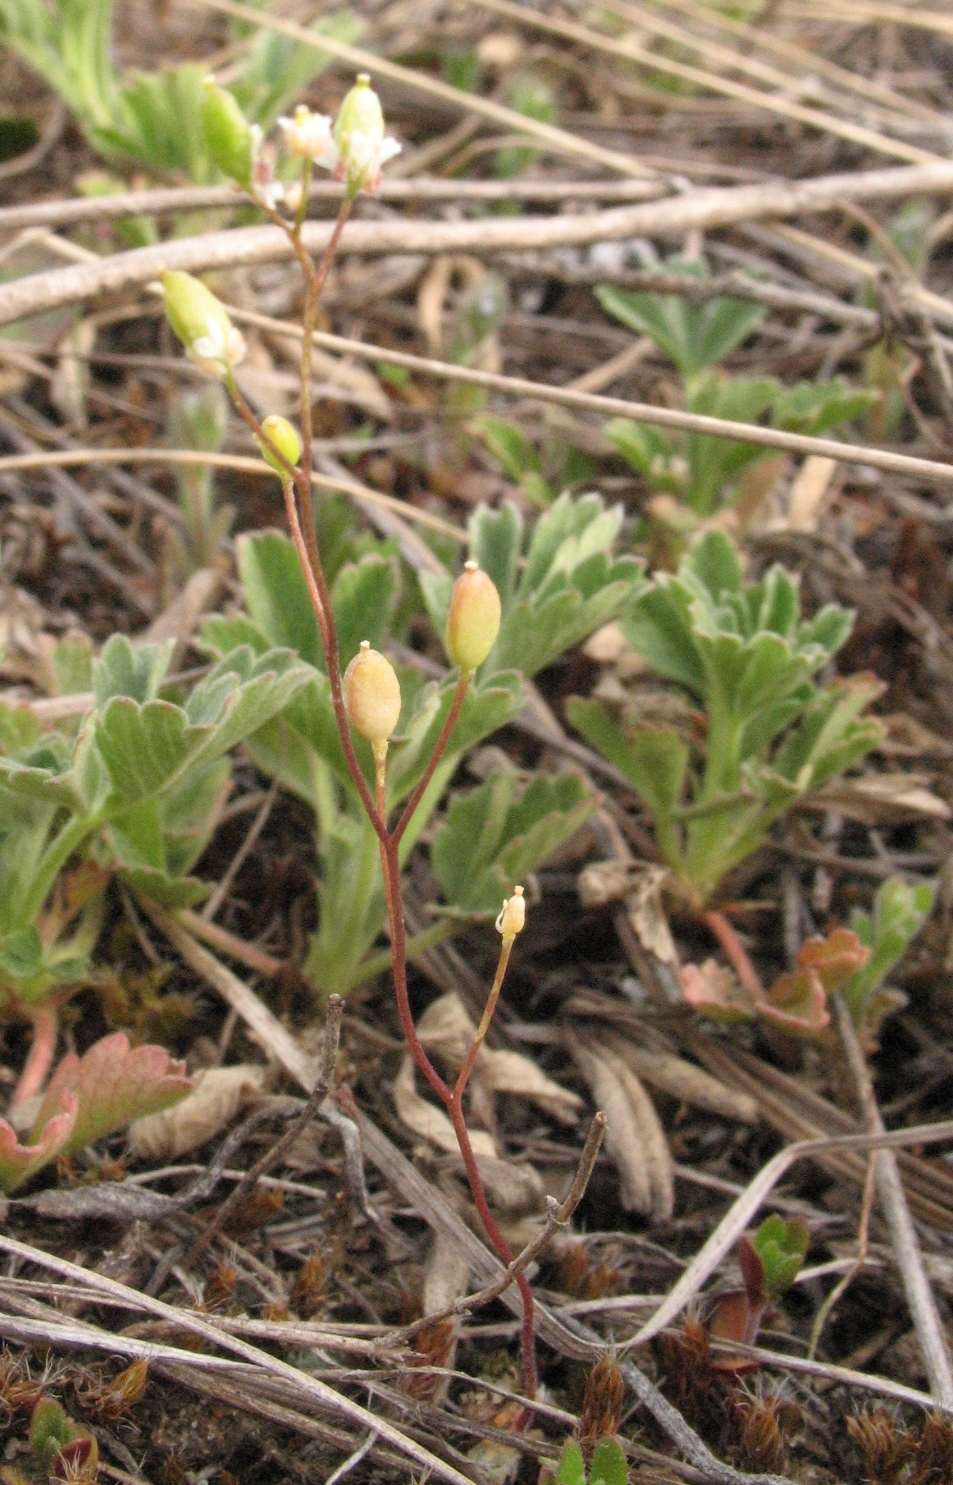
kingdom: Plantae
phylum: Tracheophyta
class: Magnoliopsida
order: Brassicales
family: Brassicaceae
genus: Draba
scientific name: Draba verna
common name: Spring draba
